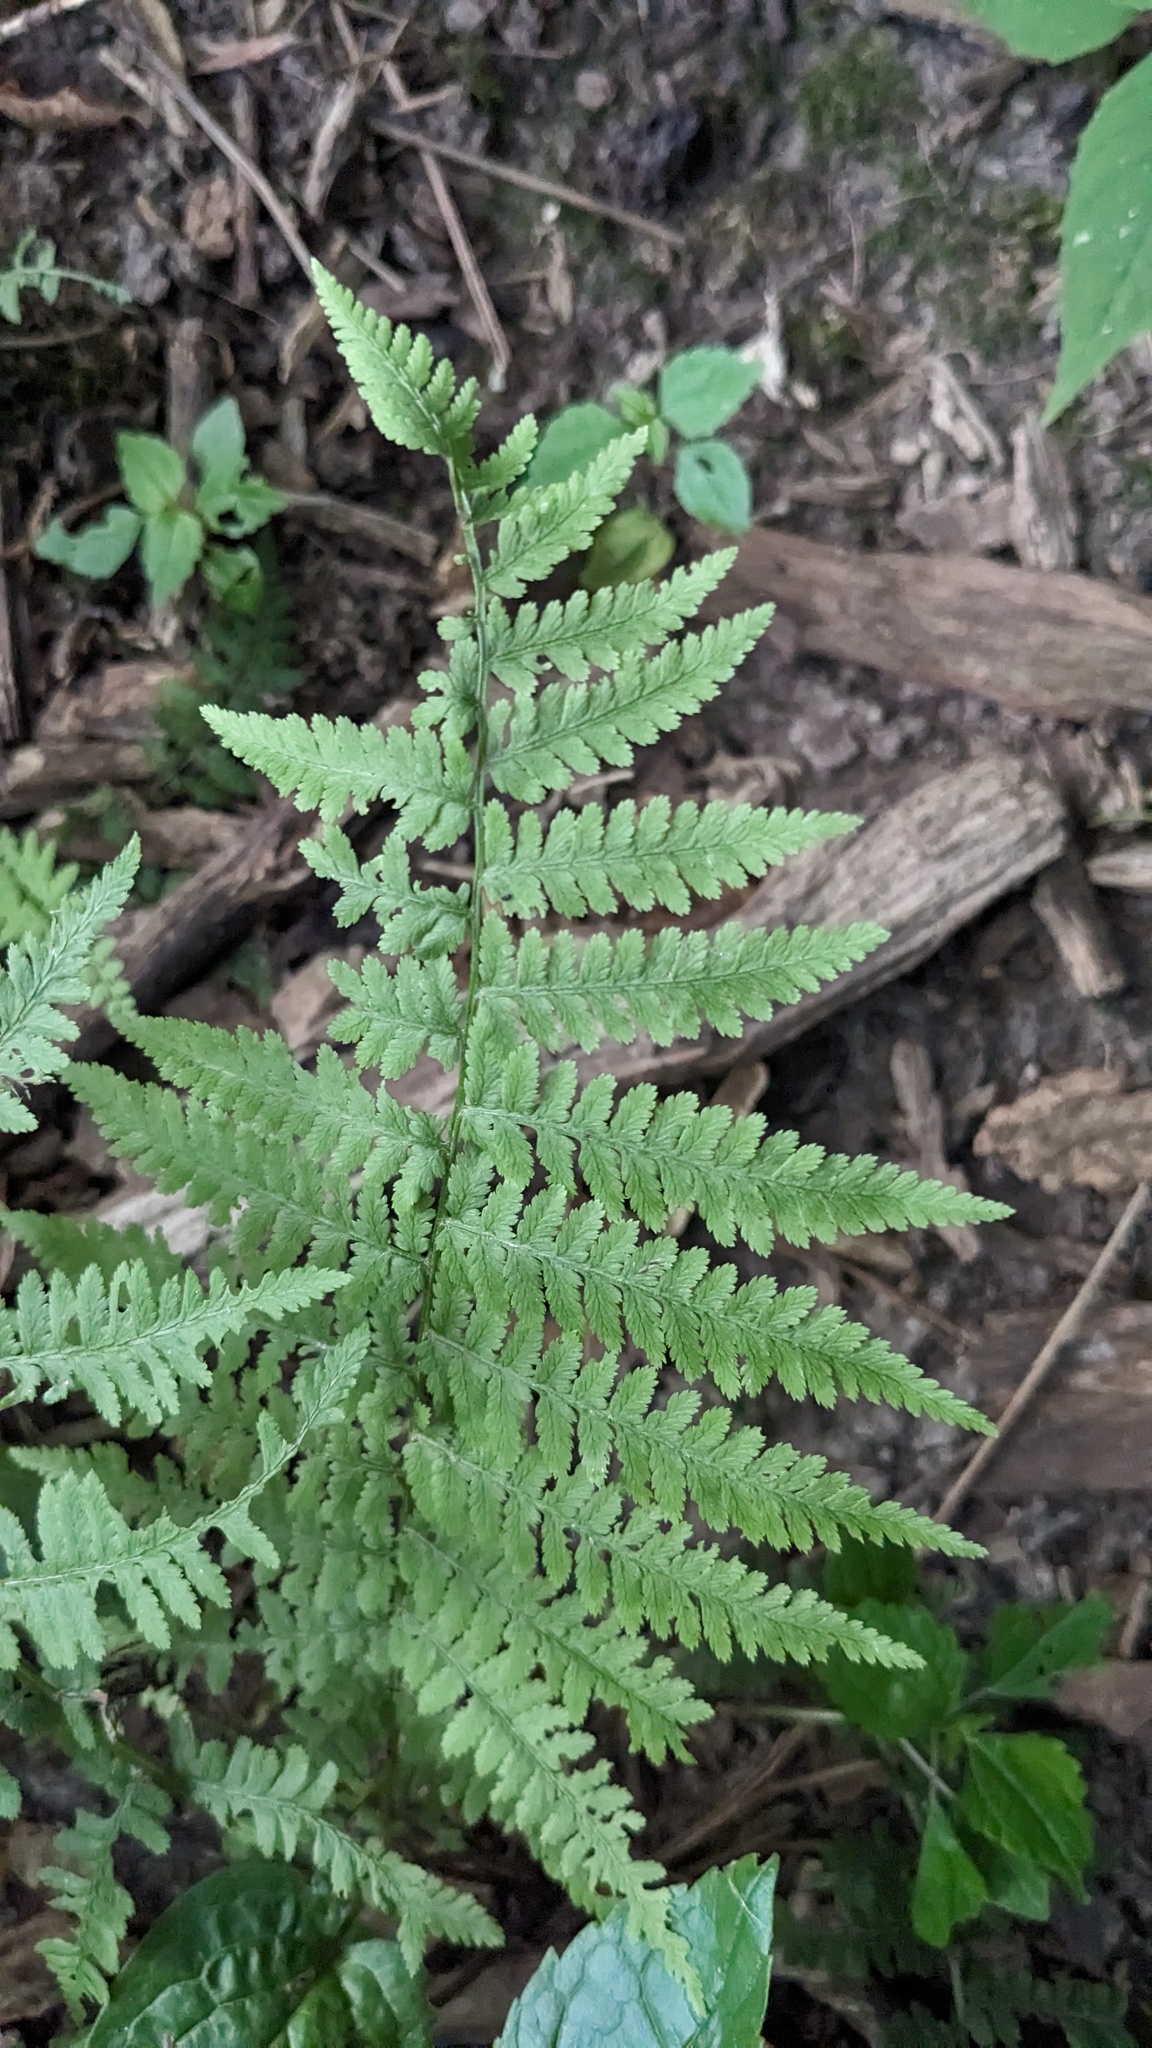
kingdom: Plantae
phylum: Tracheophyta
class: Polypodiopsida
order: Polypodiales
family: Athyriaceae
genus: Athyrium
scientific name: Athyrium angustum
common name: Northern lady fern
